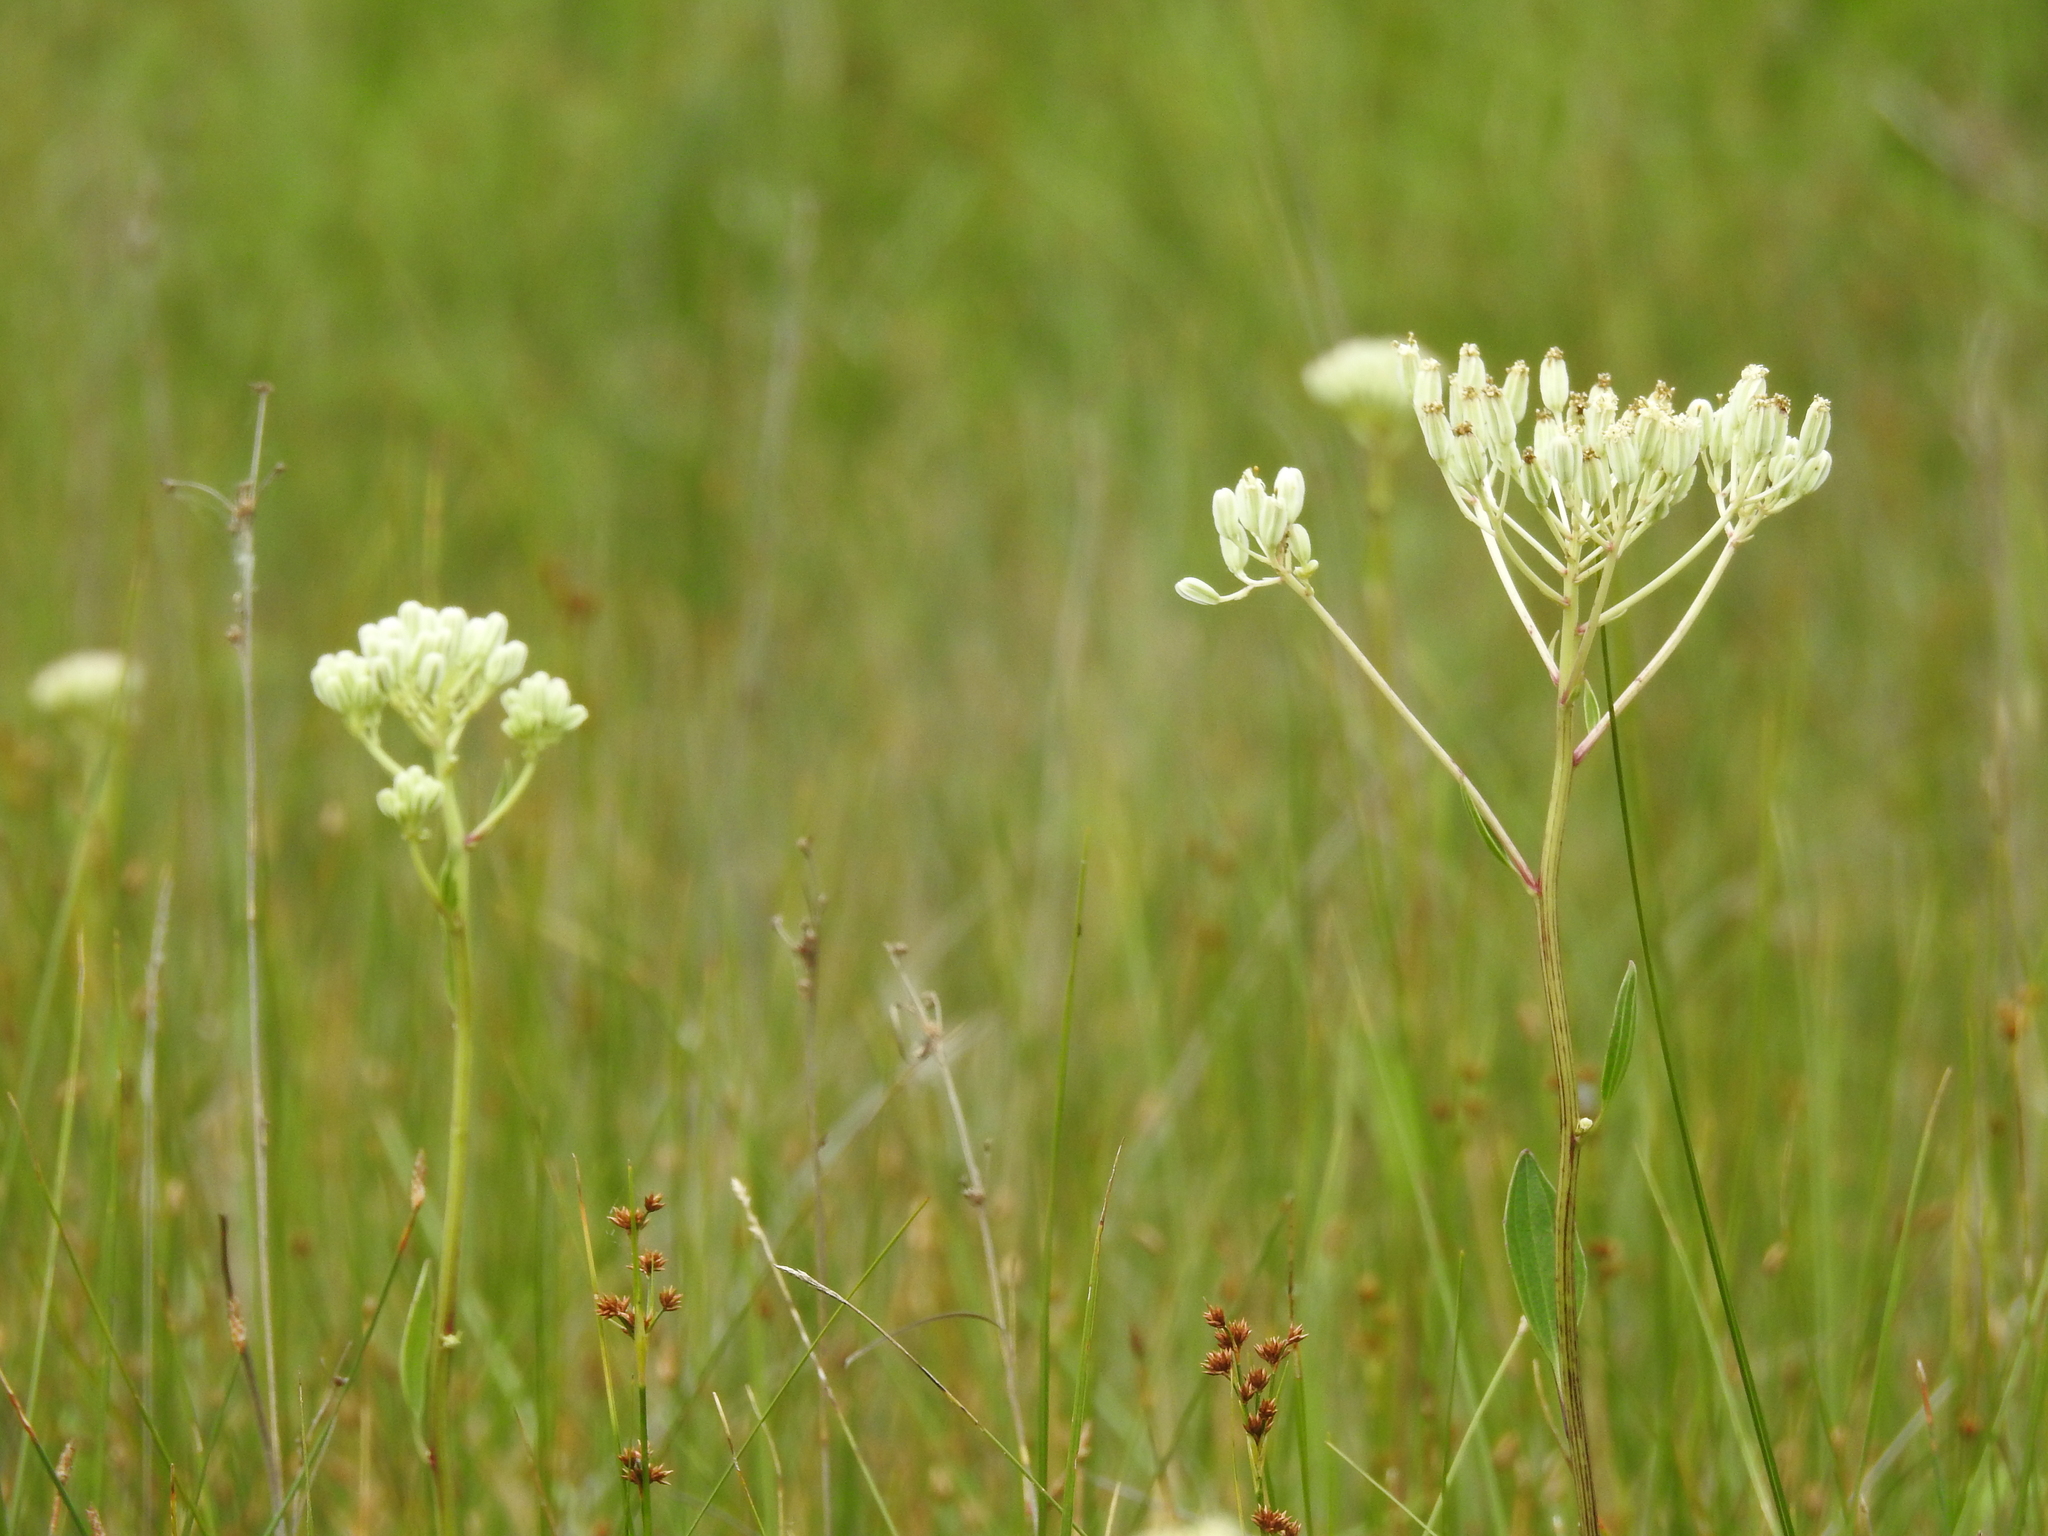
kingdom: Plantae
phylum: Tracheophyta
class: Magnoliopsida
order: Asterales
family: Asteraceae
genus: Arnoglossum
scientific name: Arnoglossum plantagineum
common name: Groove-stemmed indian-plantain
